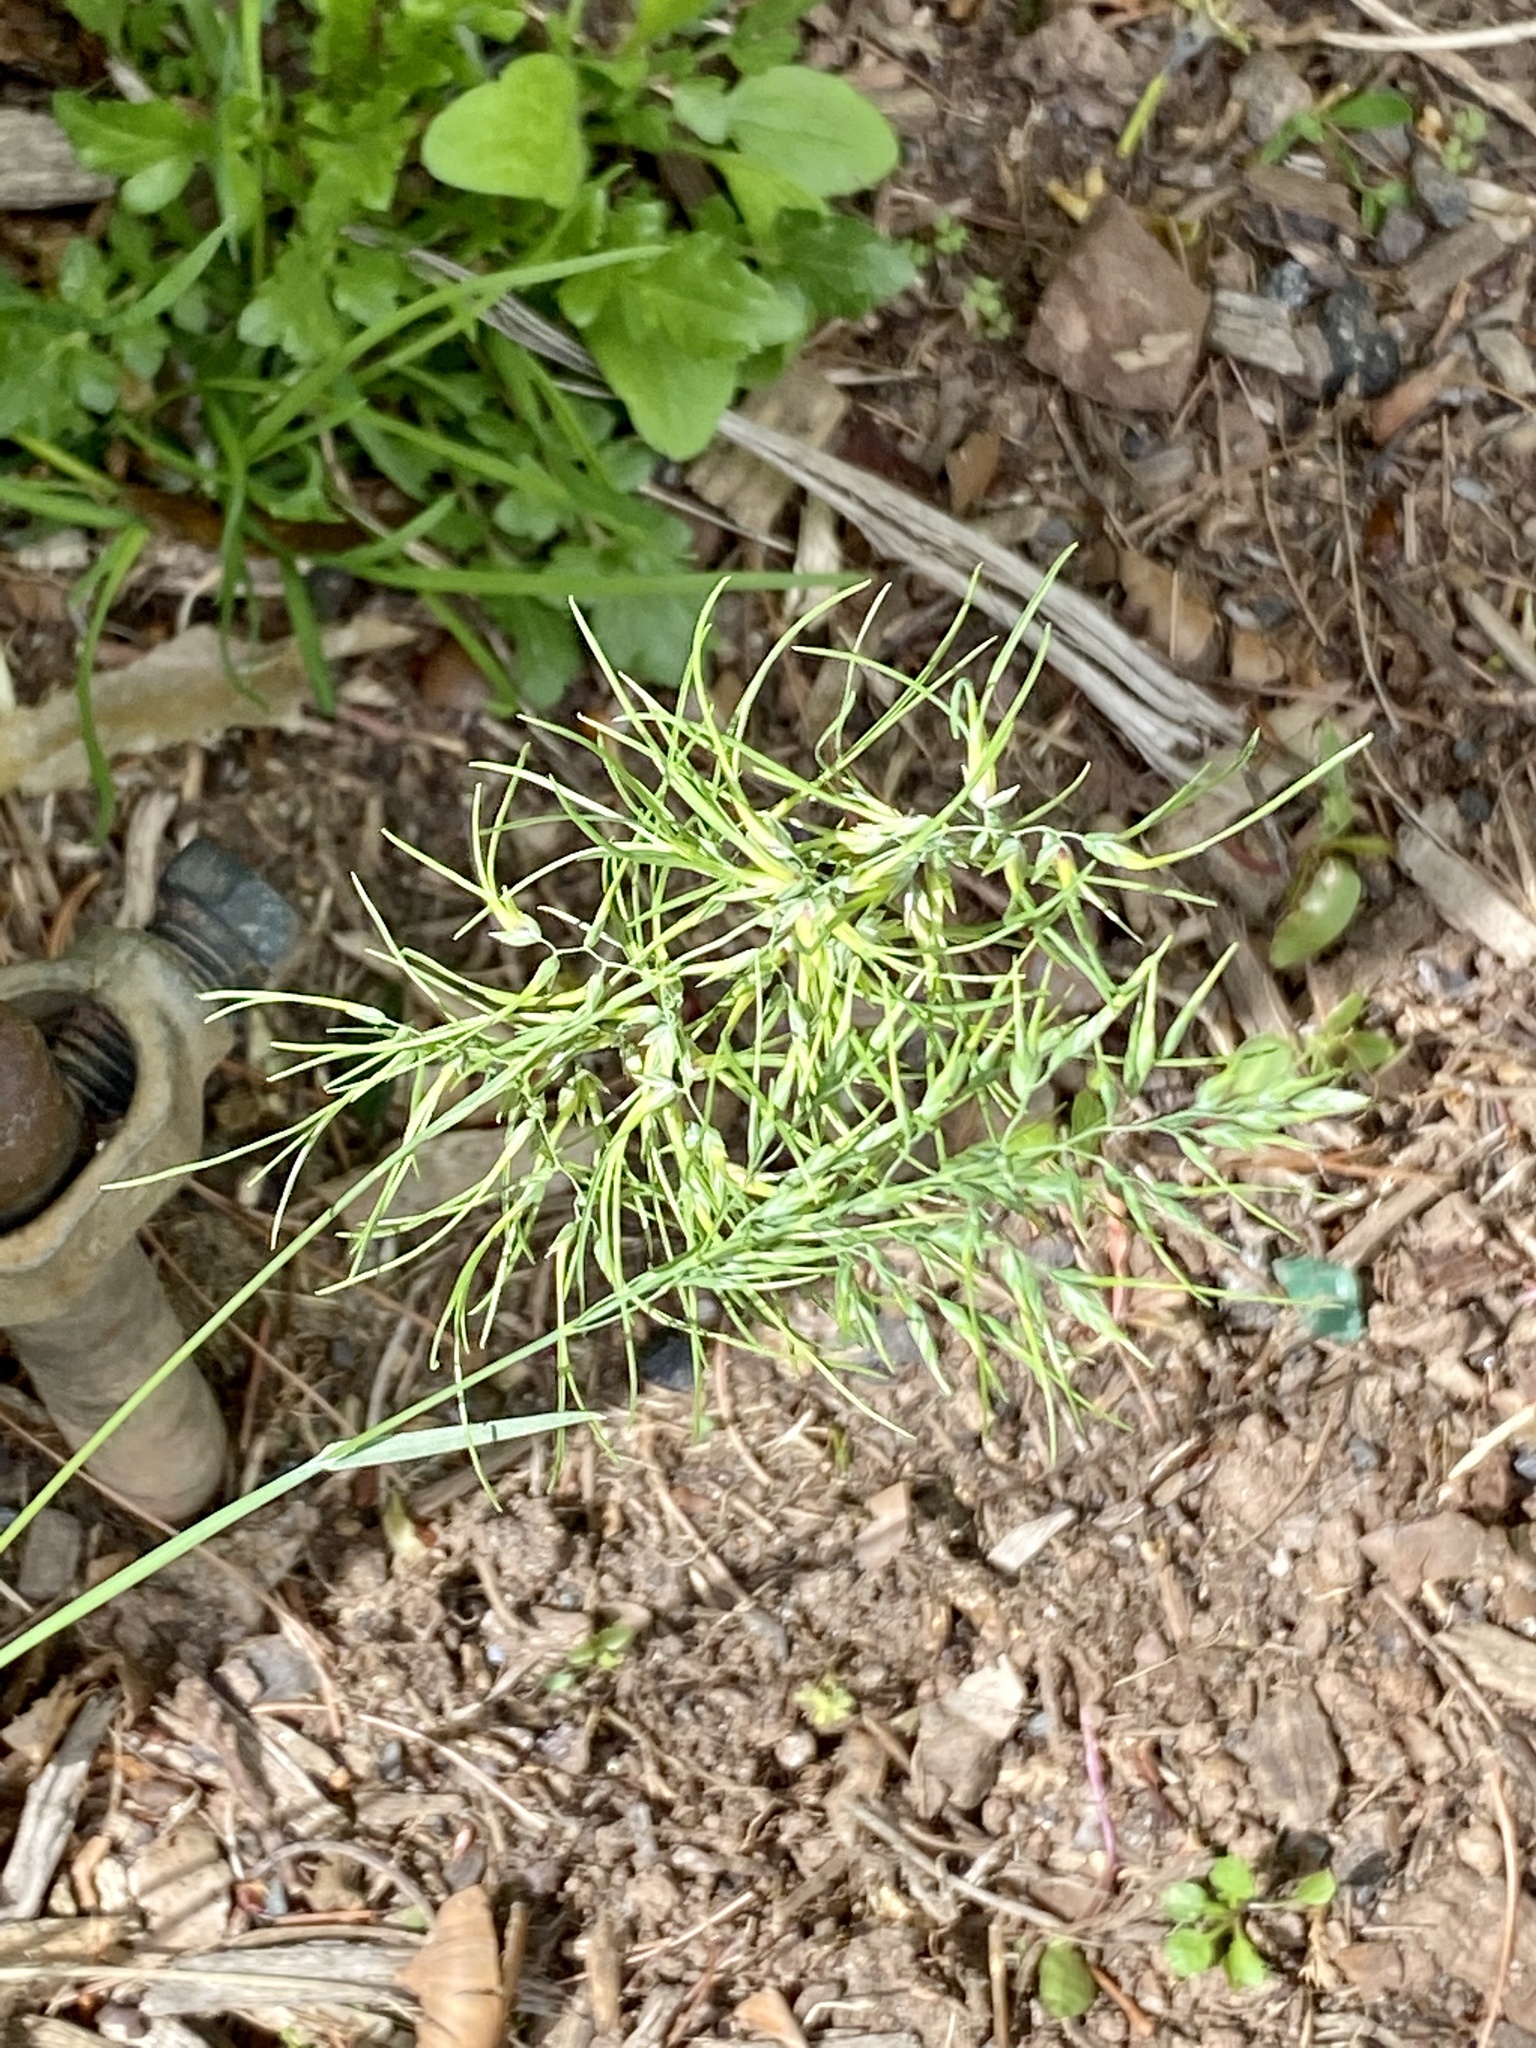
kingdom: Plantae
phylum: Tracheophyta
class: Liliopsida
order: Poales
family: Poaceae
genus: Poa
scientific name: Poa bulbosa
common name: Bulbous bluegrass
